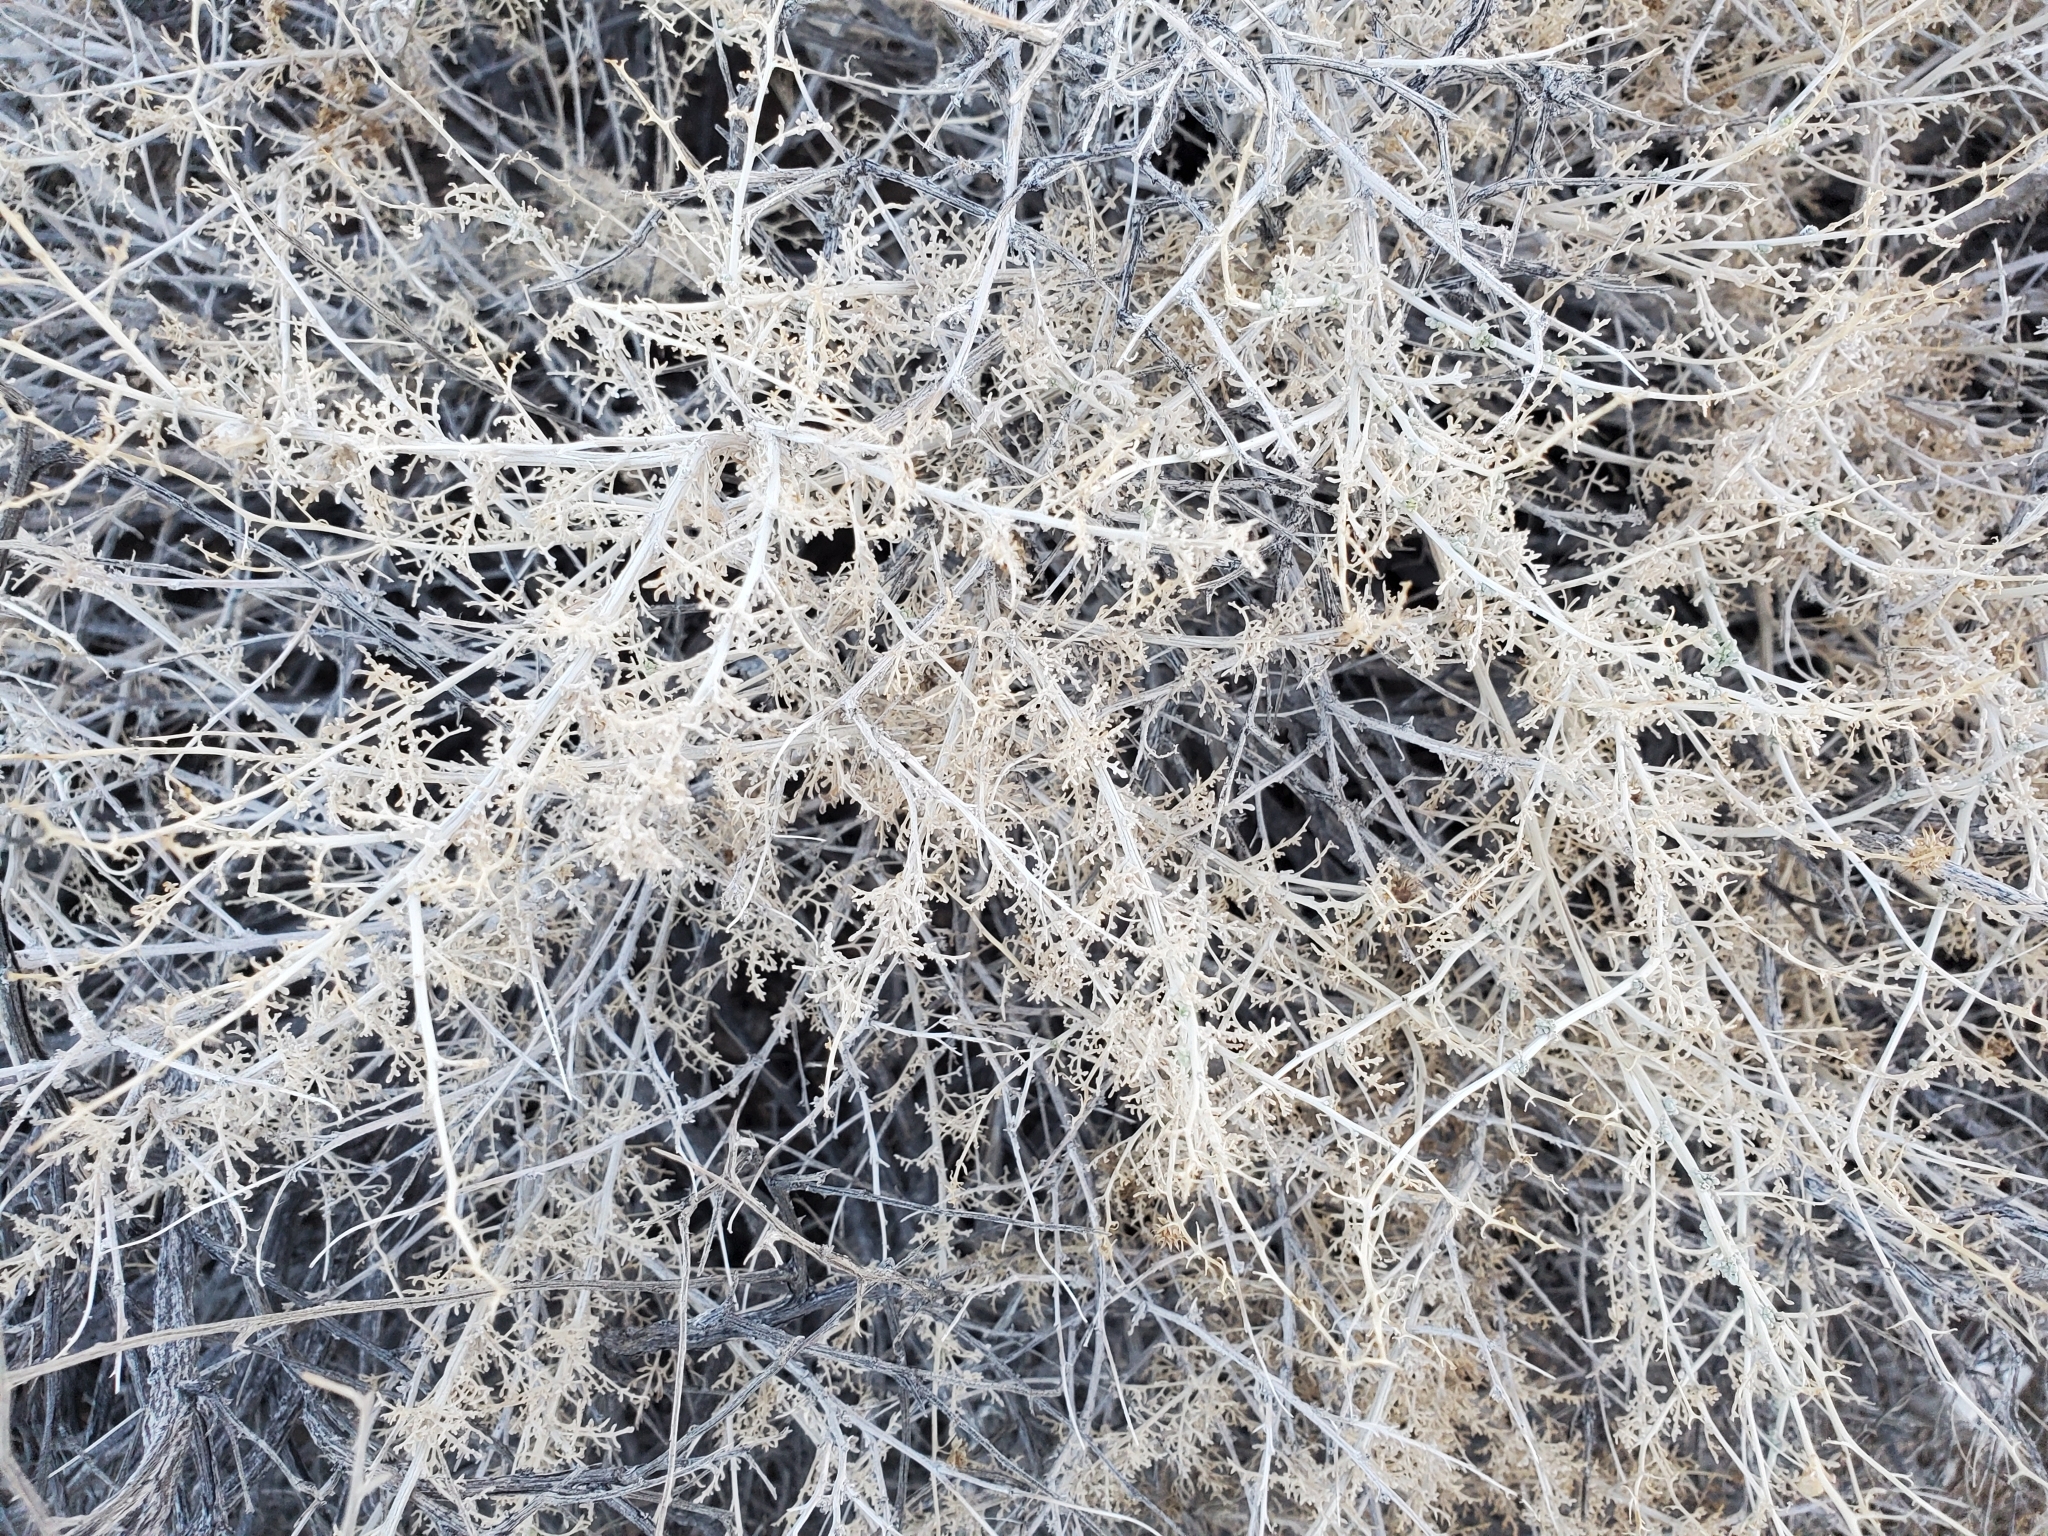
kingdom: Plantae
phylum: Tracheophyta
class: Magnoliopsida
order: Asterales
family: Asteraceae
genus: Ambrosia
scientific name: Ambrosia dumosa
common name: Bur-sage
